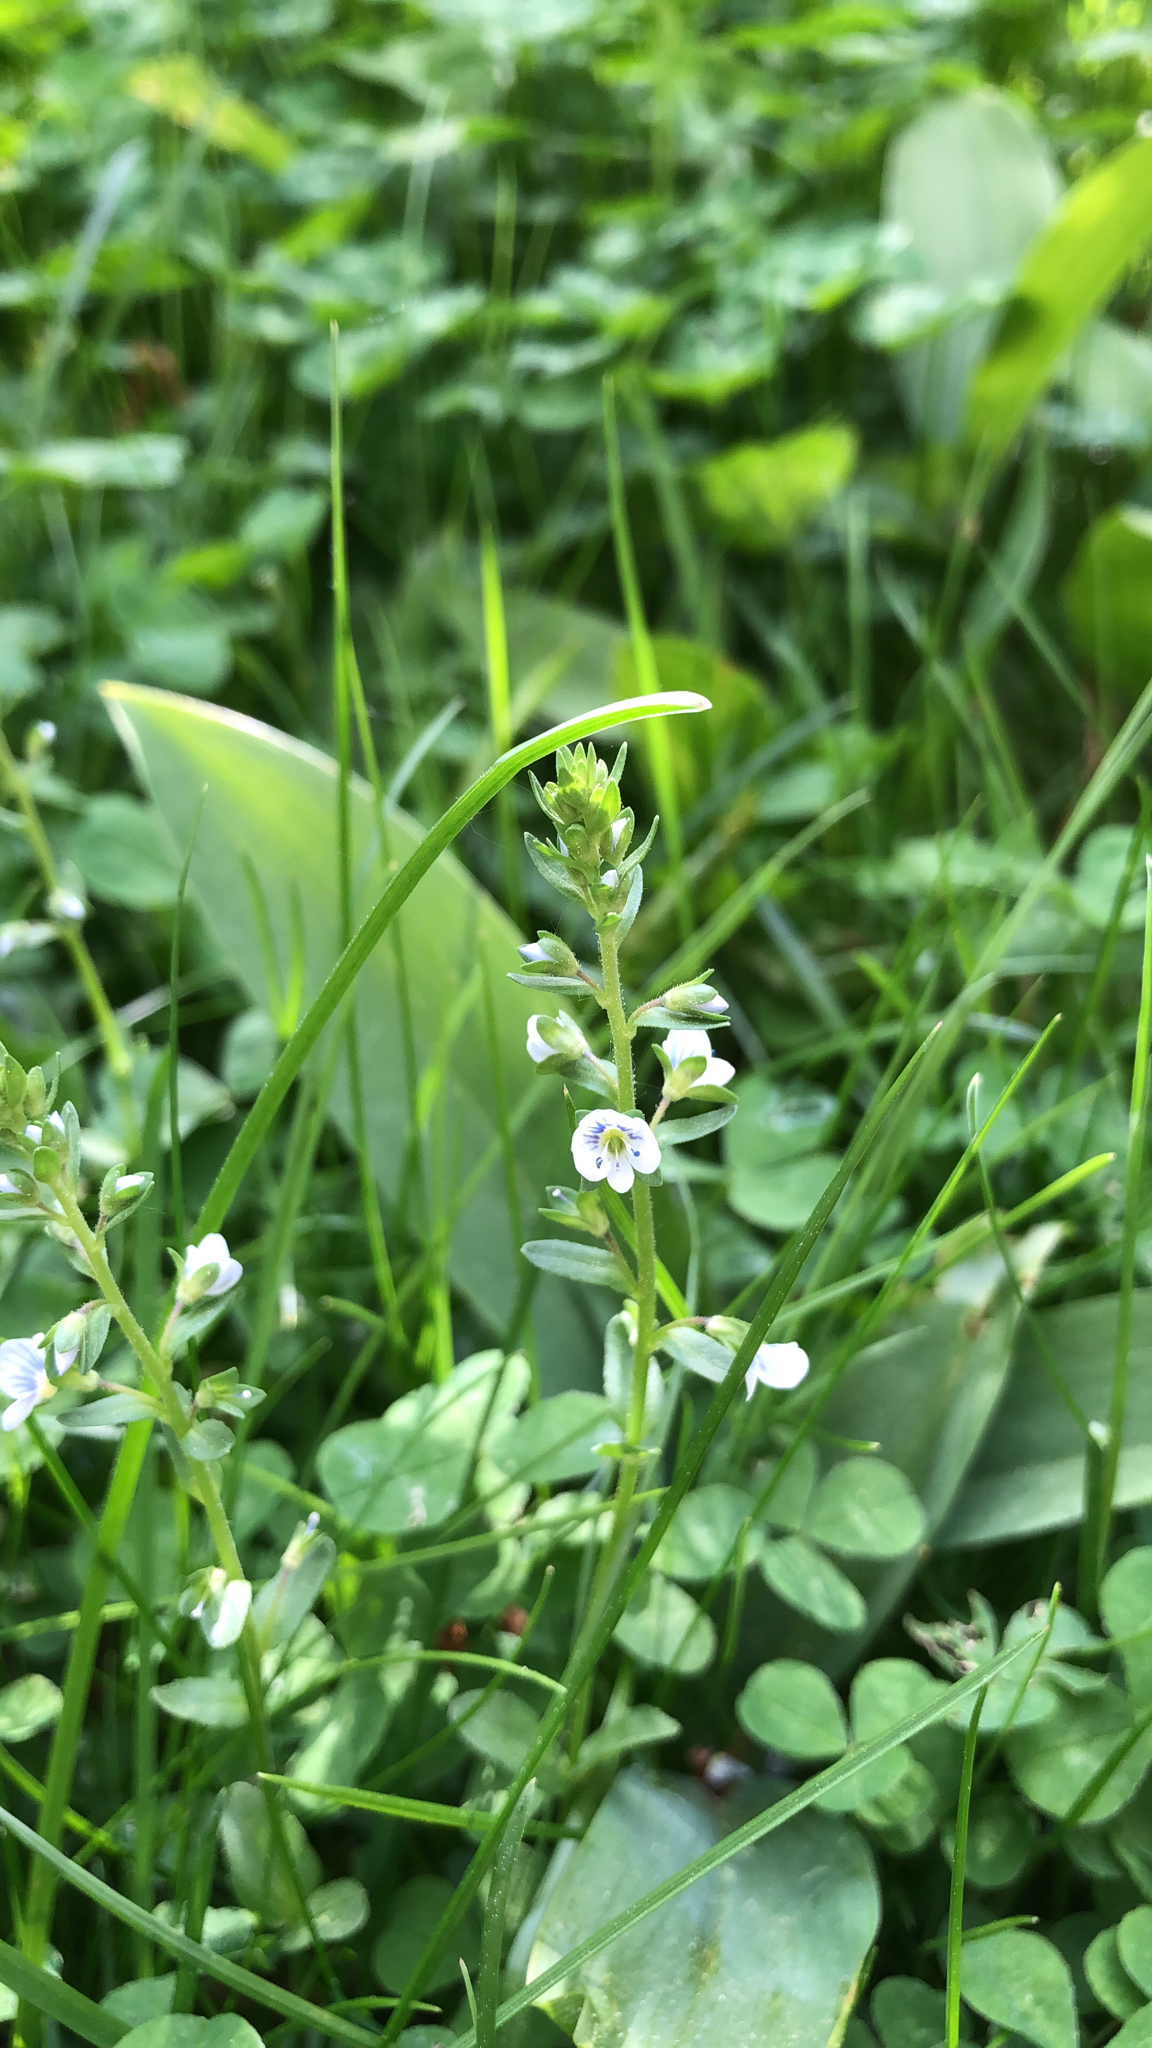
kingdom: Plantae
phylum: Tracheophyta
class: Magnoliopsida
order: Lamiales
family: Plantaginaceae
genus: Veronica
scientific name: Veronica serpyllifolia
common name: Thyme-leaved speedwell
